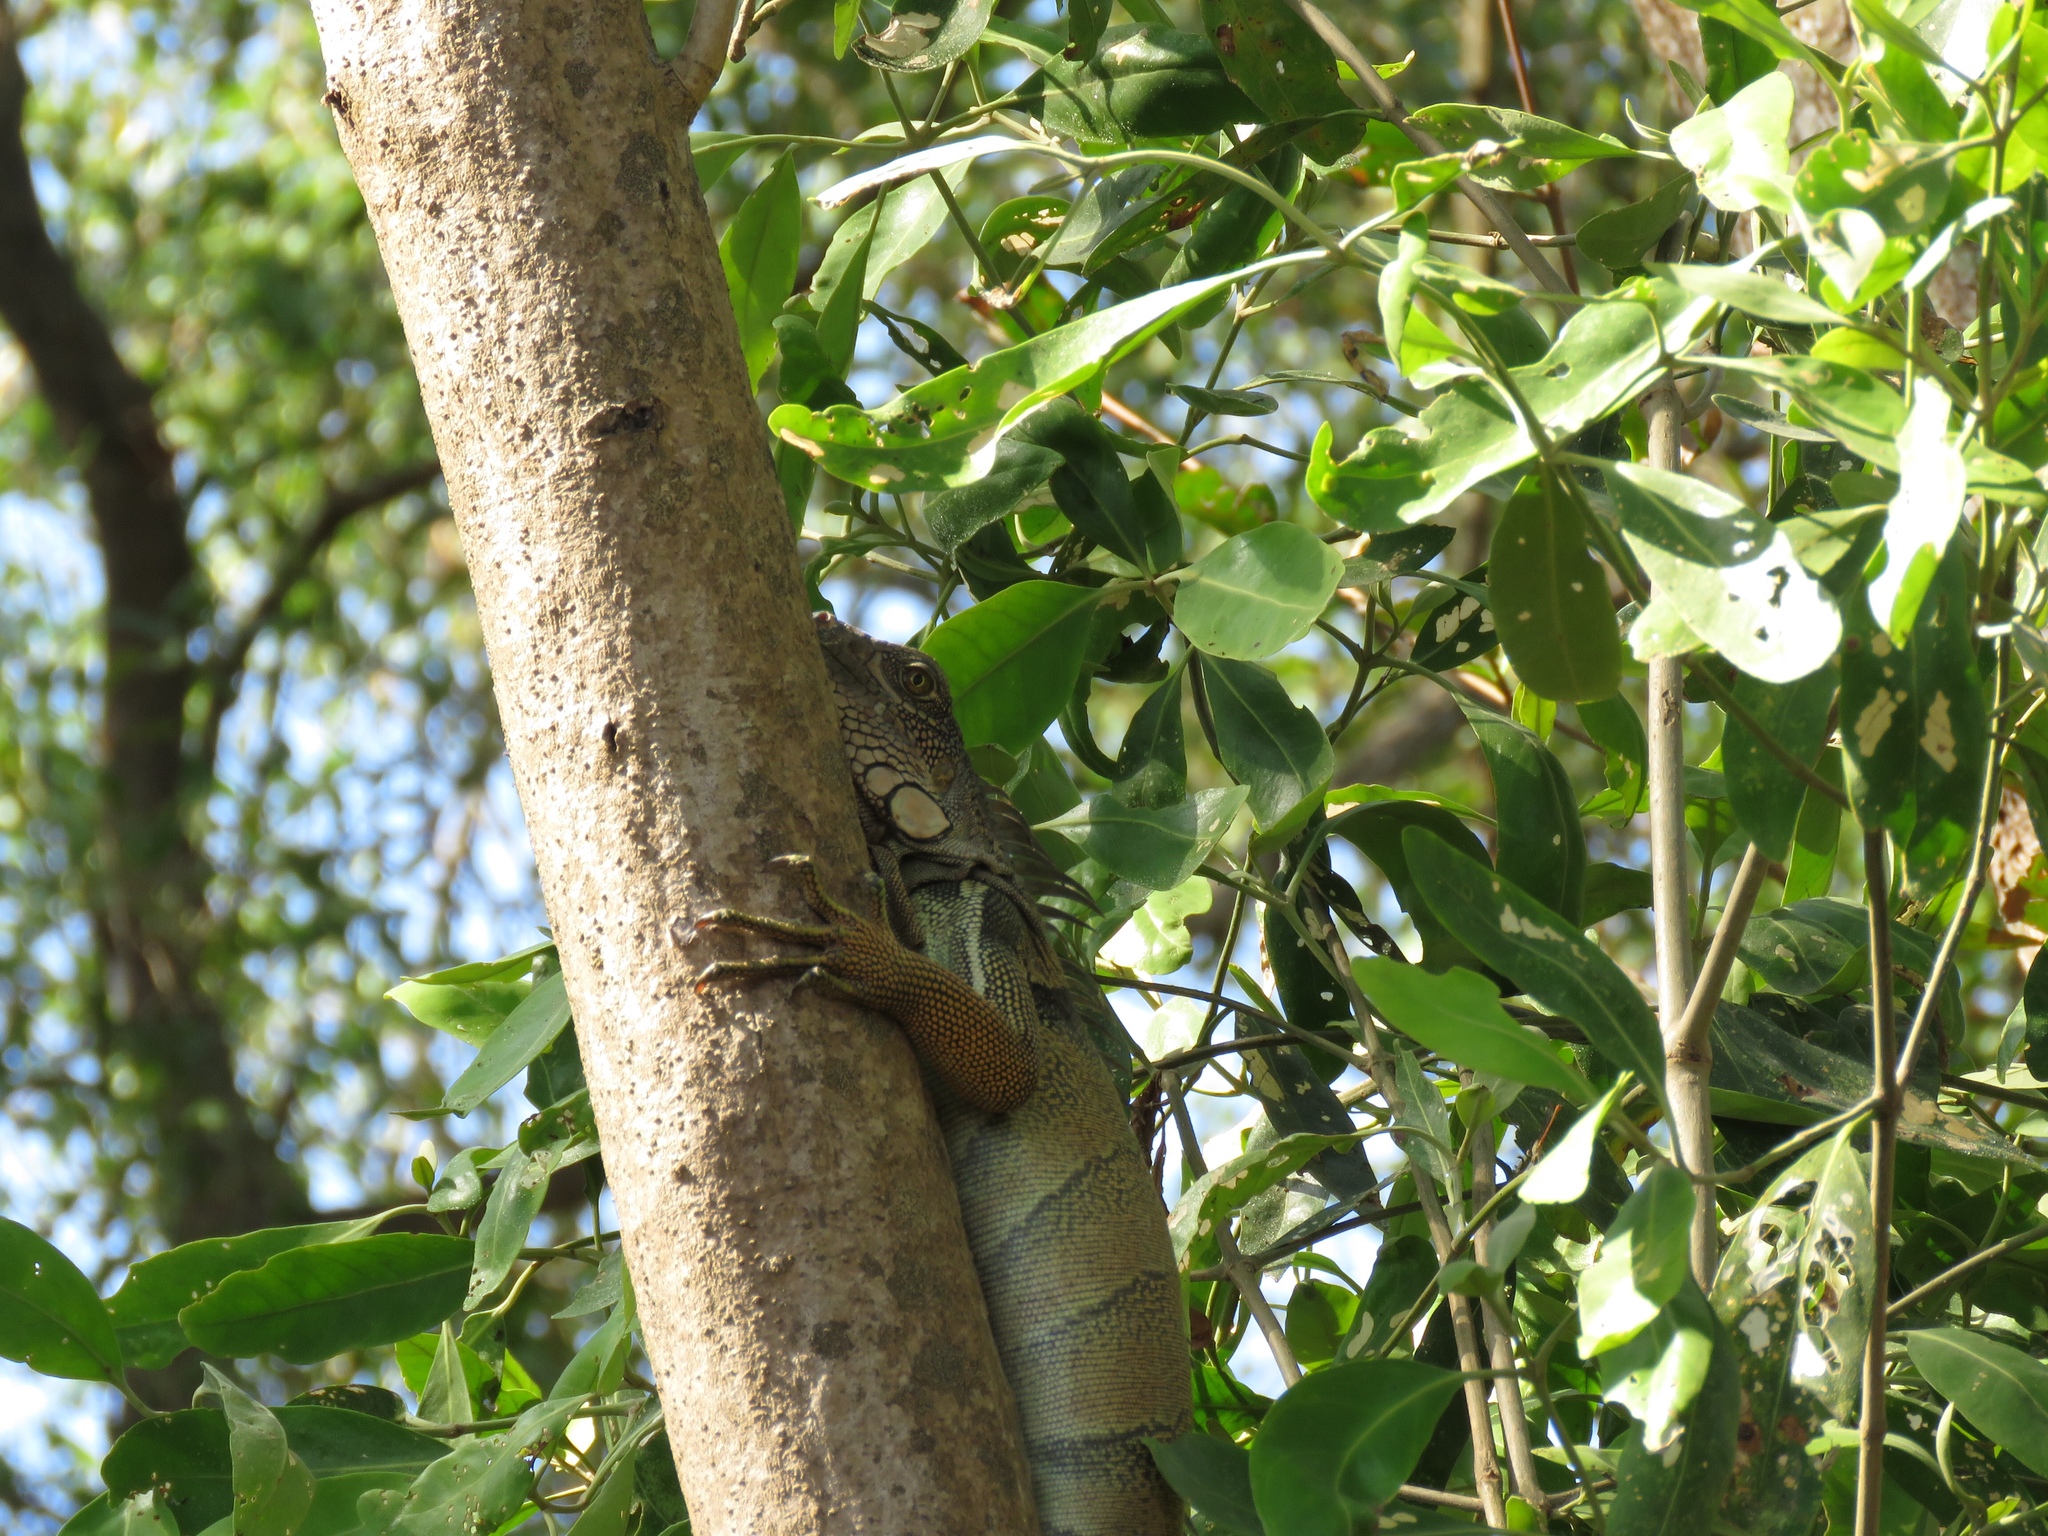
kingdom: Animalia
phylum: Chordata
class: Squamata
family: Iguanidae
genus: Iguana
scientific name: Iguana iguana
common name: Green iguana
